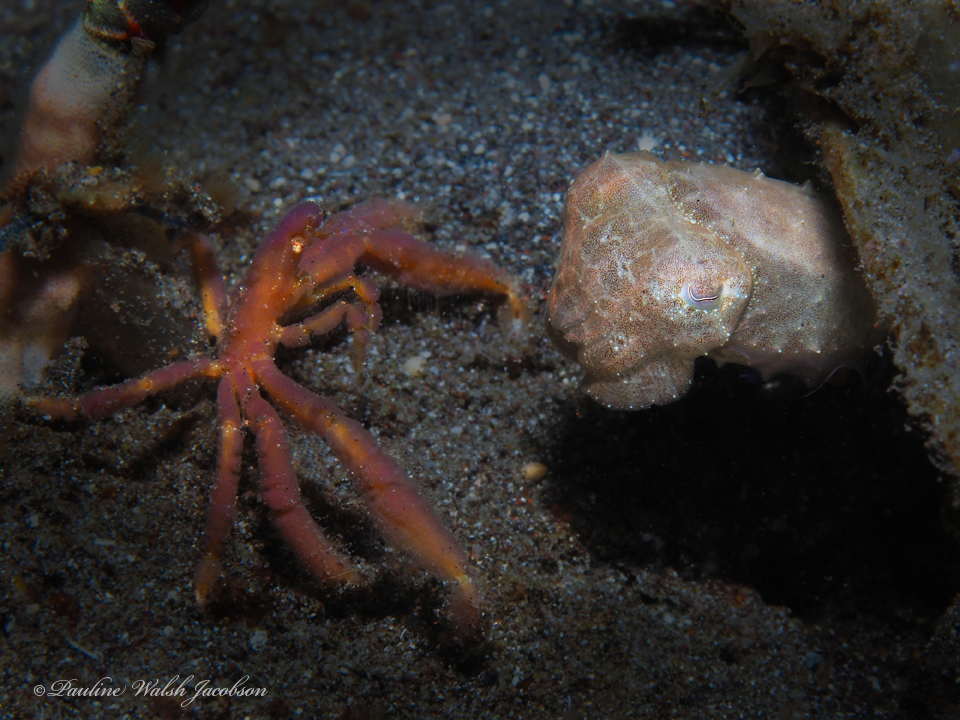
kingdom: Animalia
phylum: Arthropoda
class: Malacostraca
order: Decapoda
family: Inachidae
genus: Achaeus
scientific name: Achaeus japonicus
